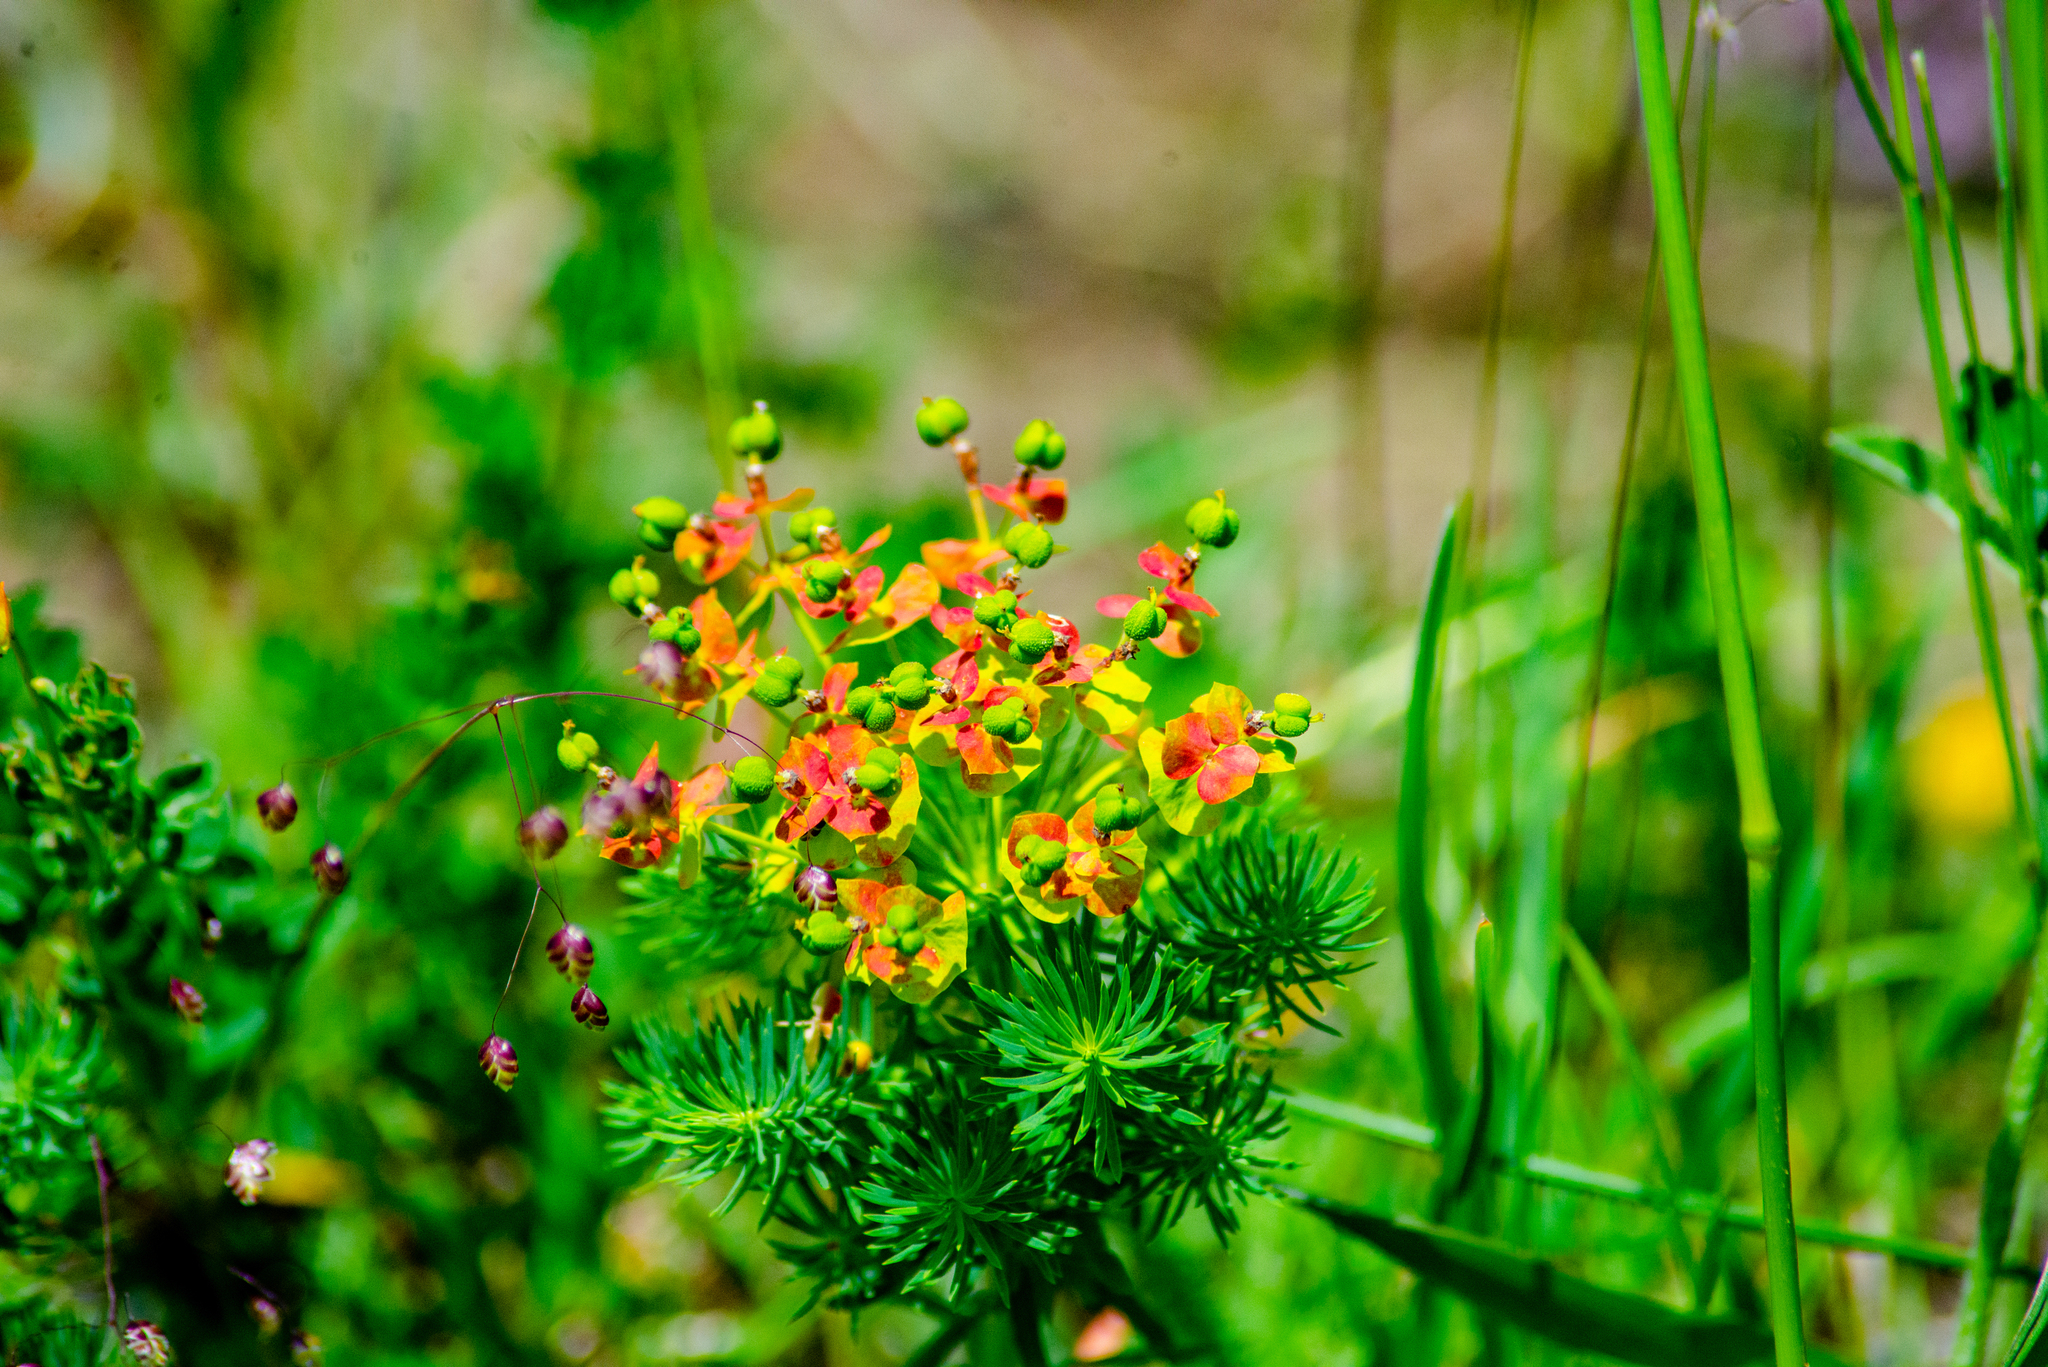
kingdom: Plantae
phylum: Tracheophyta
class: Magnoliopsida
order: Malpighiales
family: Euphorbiaceae
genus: Euphorbia
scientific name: Euphorbia cyparissias
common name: Cypress spurge
